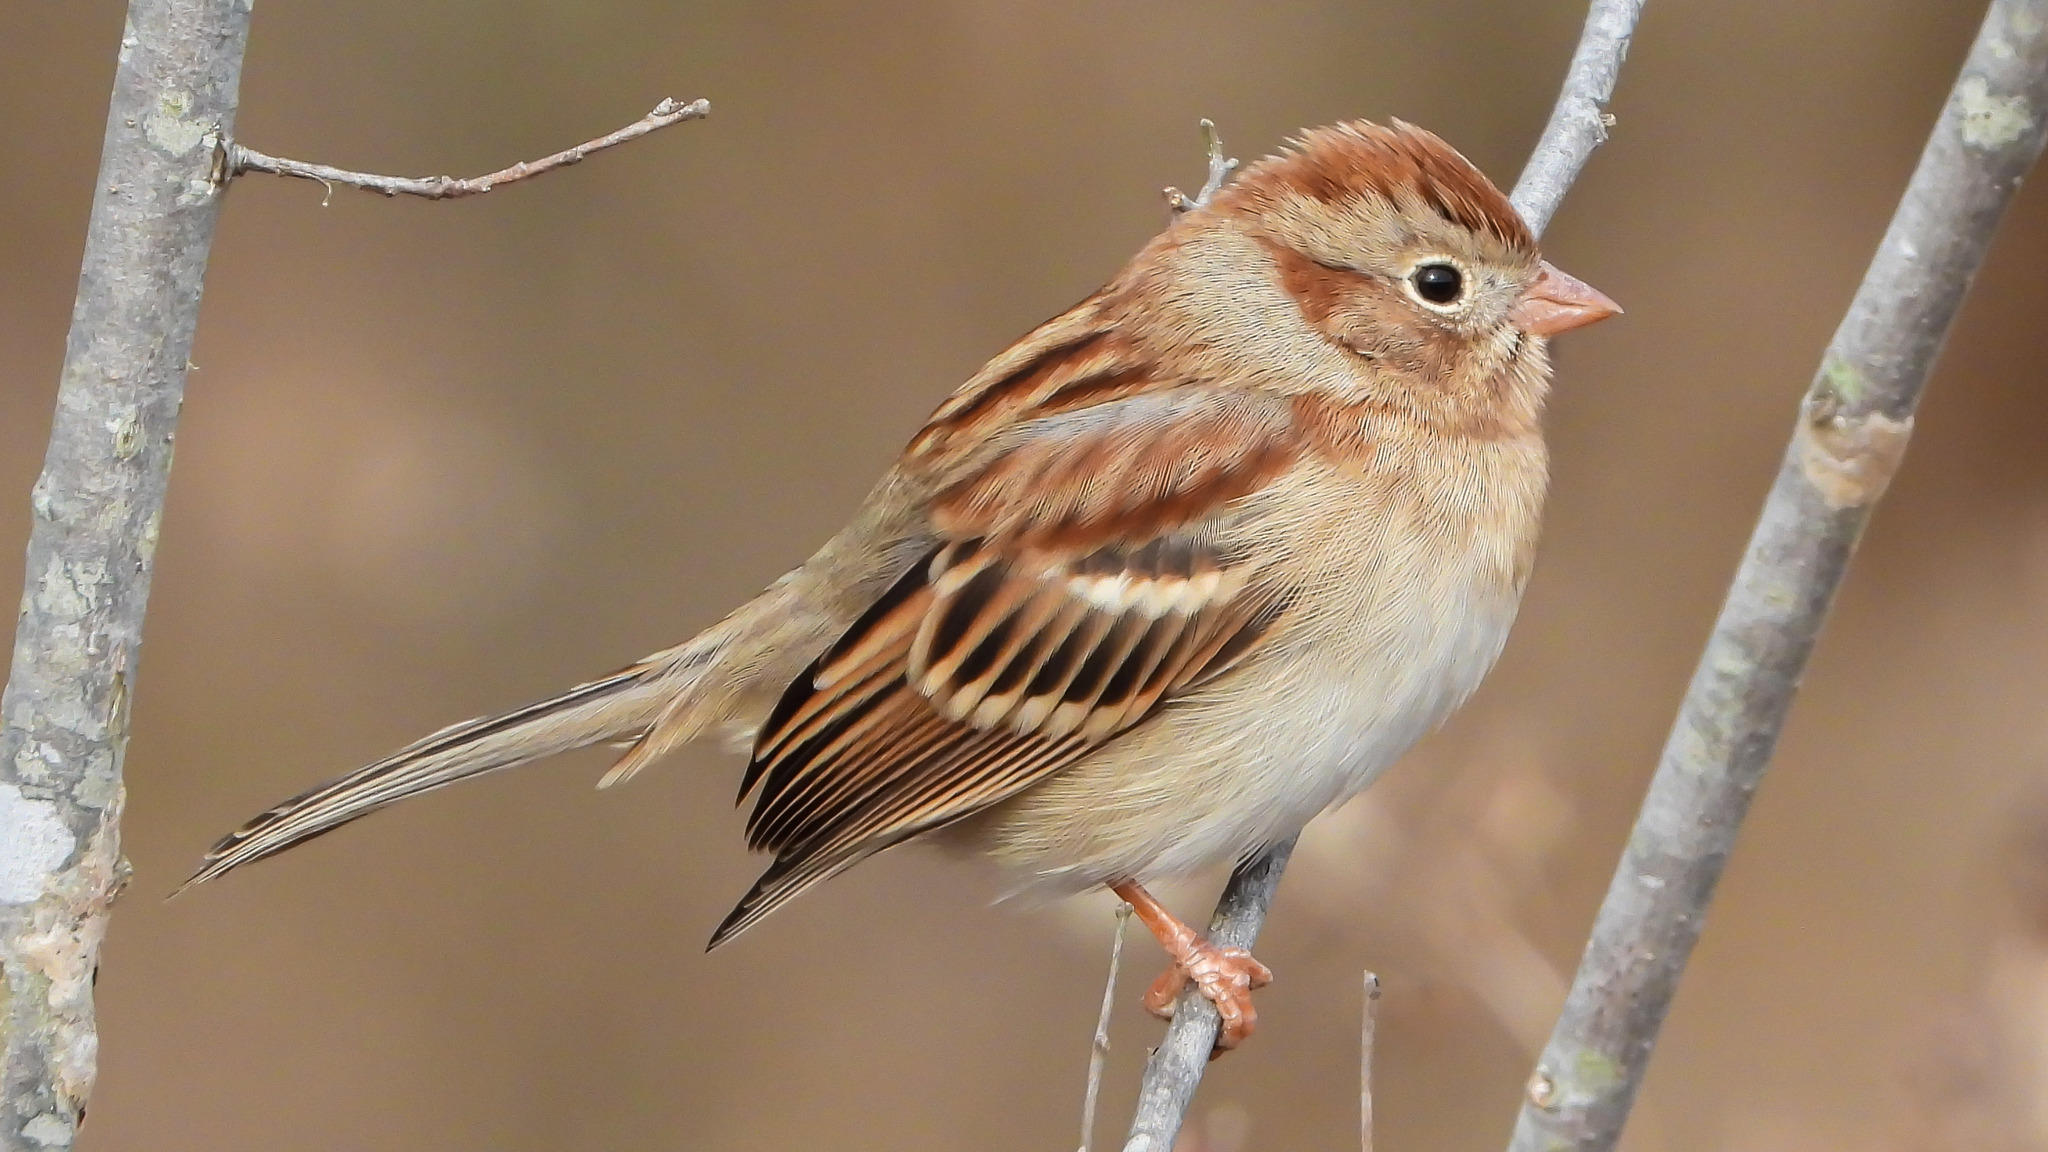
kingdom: Animalia
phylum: Chordata
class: Aves
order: Passeriformes
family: Passerellidae
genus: Spizella
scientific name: Spizella pusilla
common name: Field sparrow
